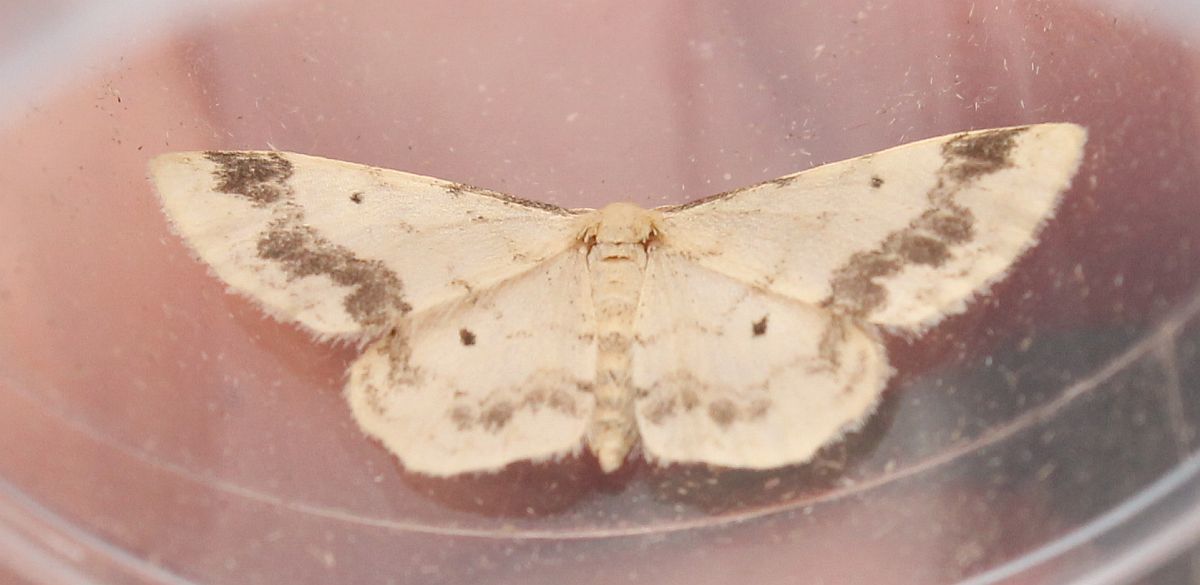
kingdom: Animalia
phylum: Arthropoda
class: Insecta
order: Lepidoptera
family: Geometridae
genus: Idaea
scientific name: Idaea trigeminata
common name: Treble brown spot
